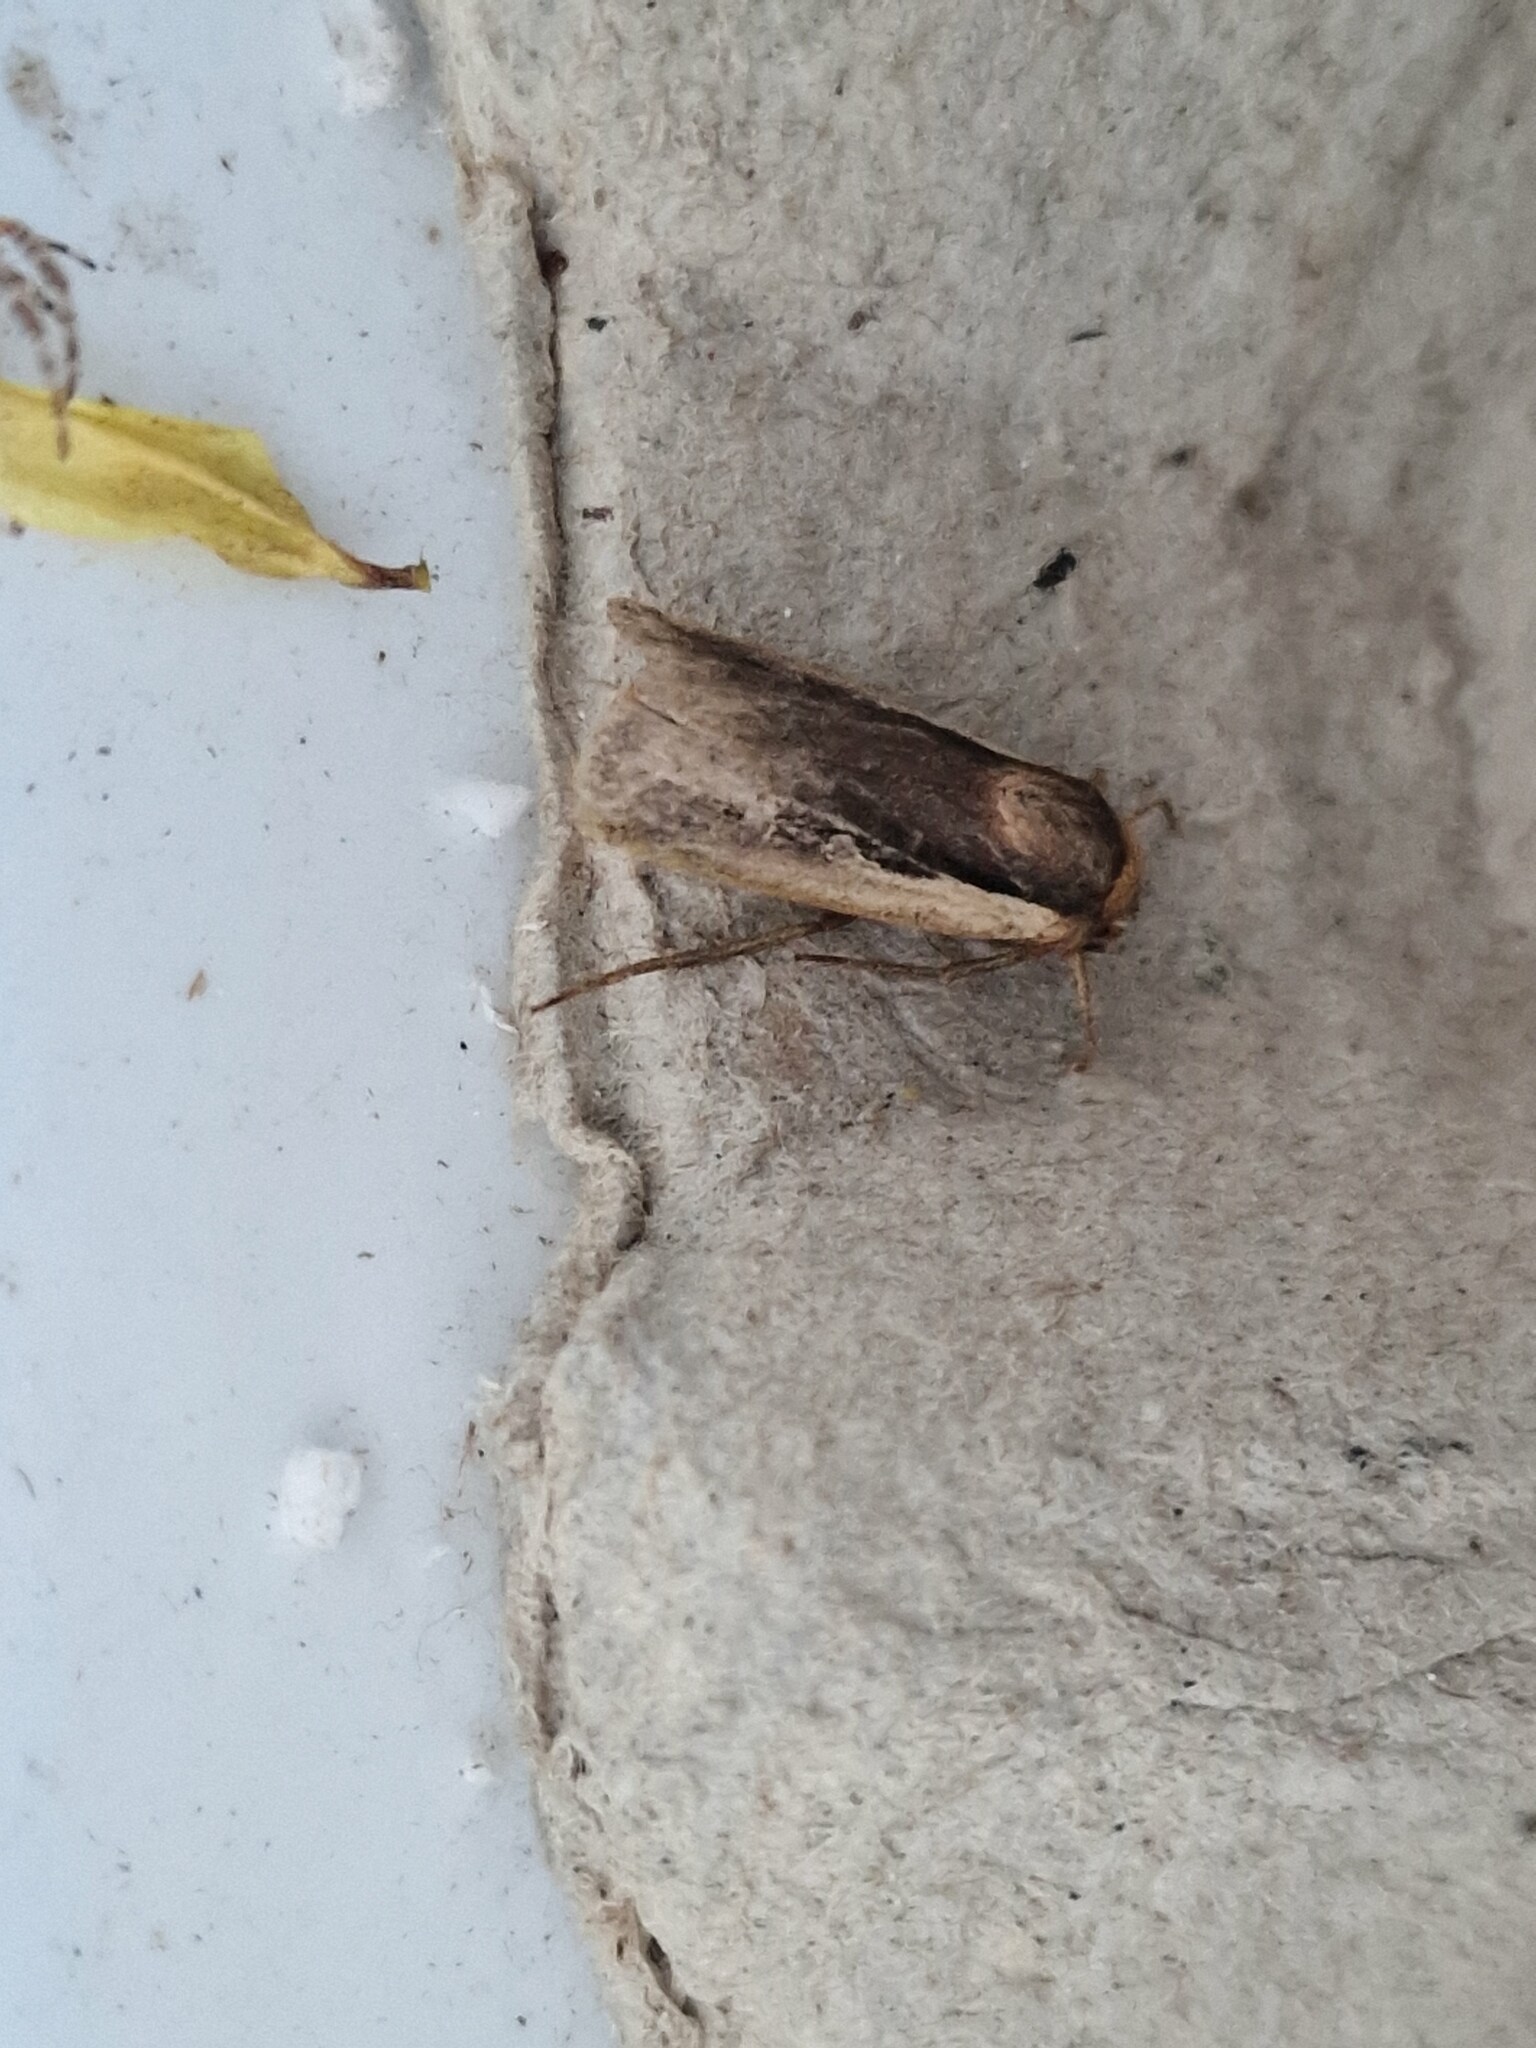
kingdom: Animalia
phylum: Arthropoda
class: Insecta
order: Lepidoptera
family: Noctuidae
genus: Ochropleura
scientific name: Ochropleura plecta
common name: Flame shoulder
